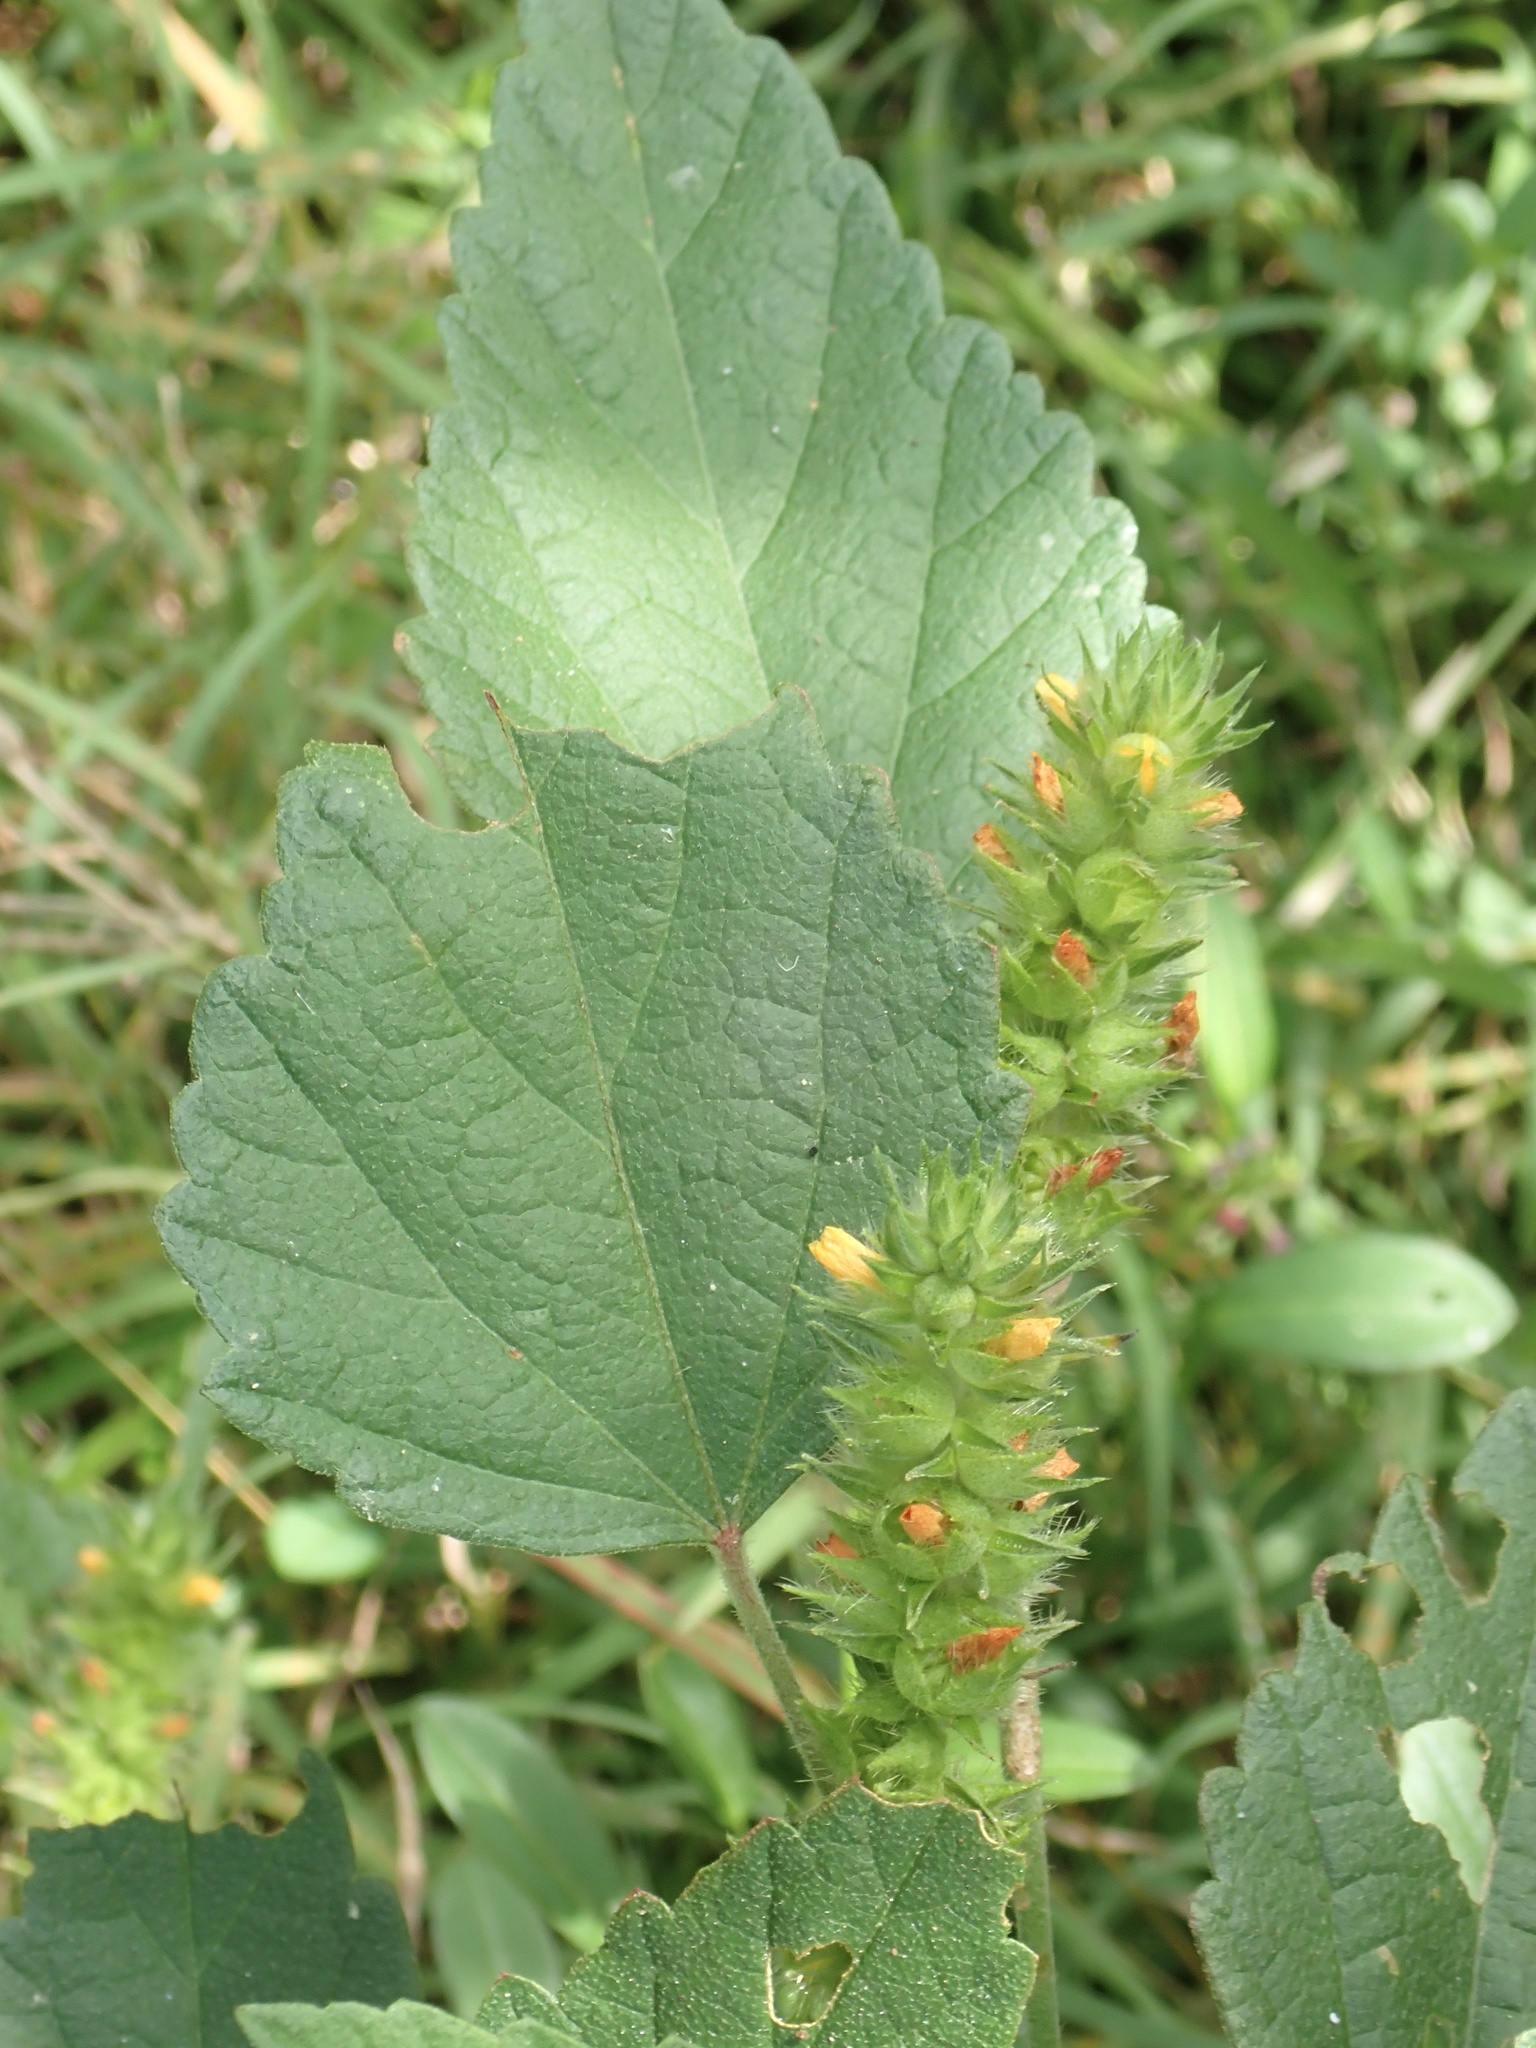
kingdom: Plantae
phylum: Tracheophyta
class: Magnoliopsida
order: Malvales
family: Malvaceae
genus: Malvastrum
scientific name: Malvastrum americanum
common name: Spiked malvastrum
